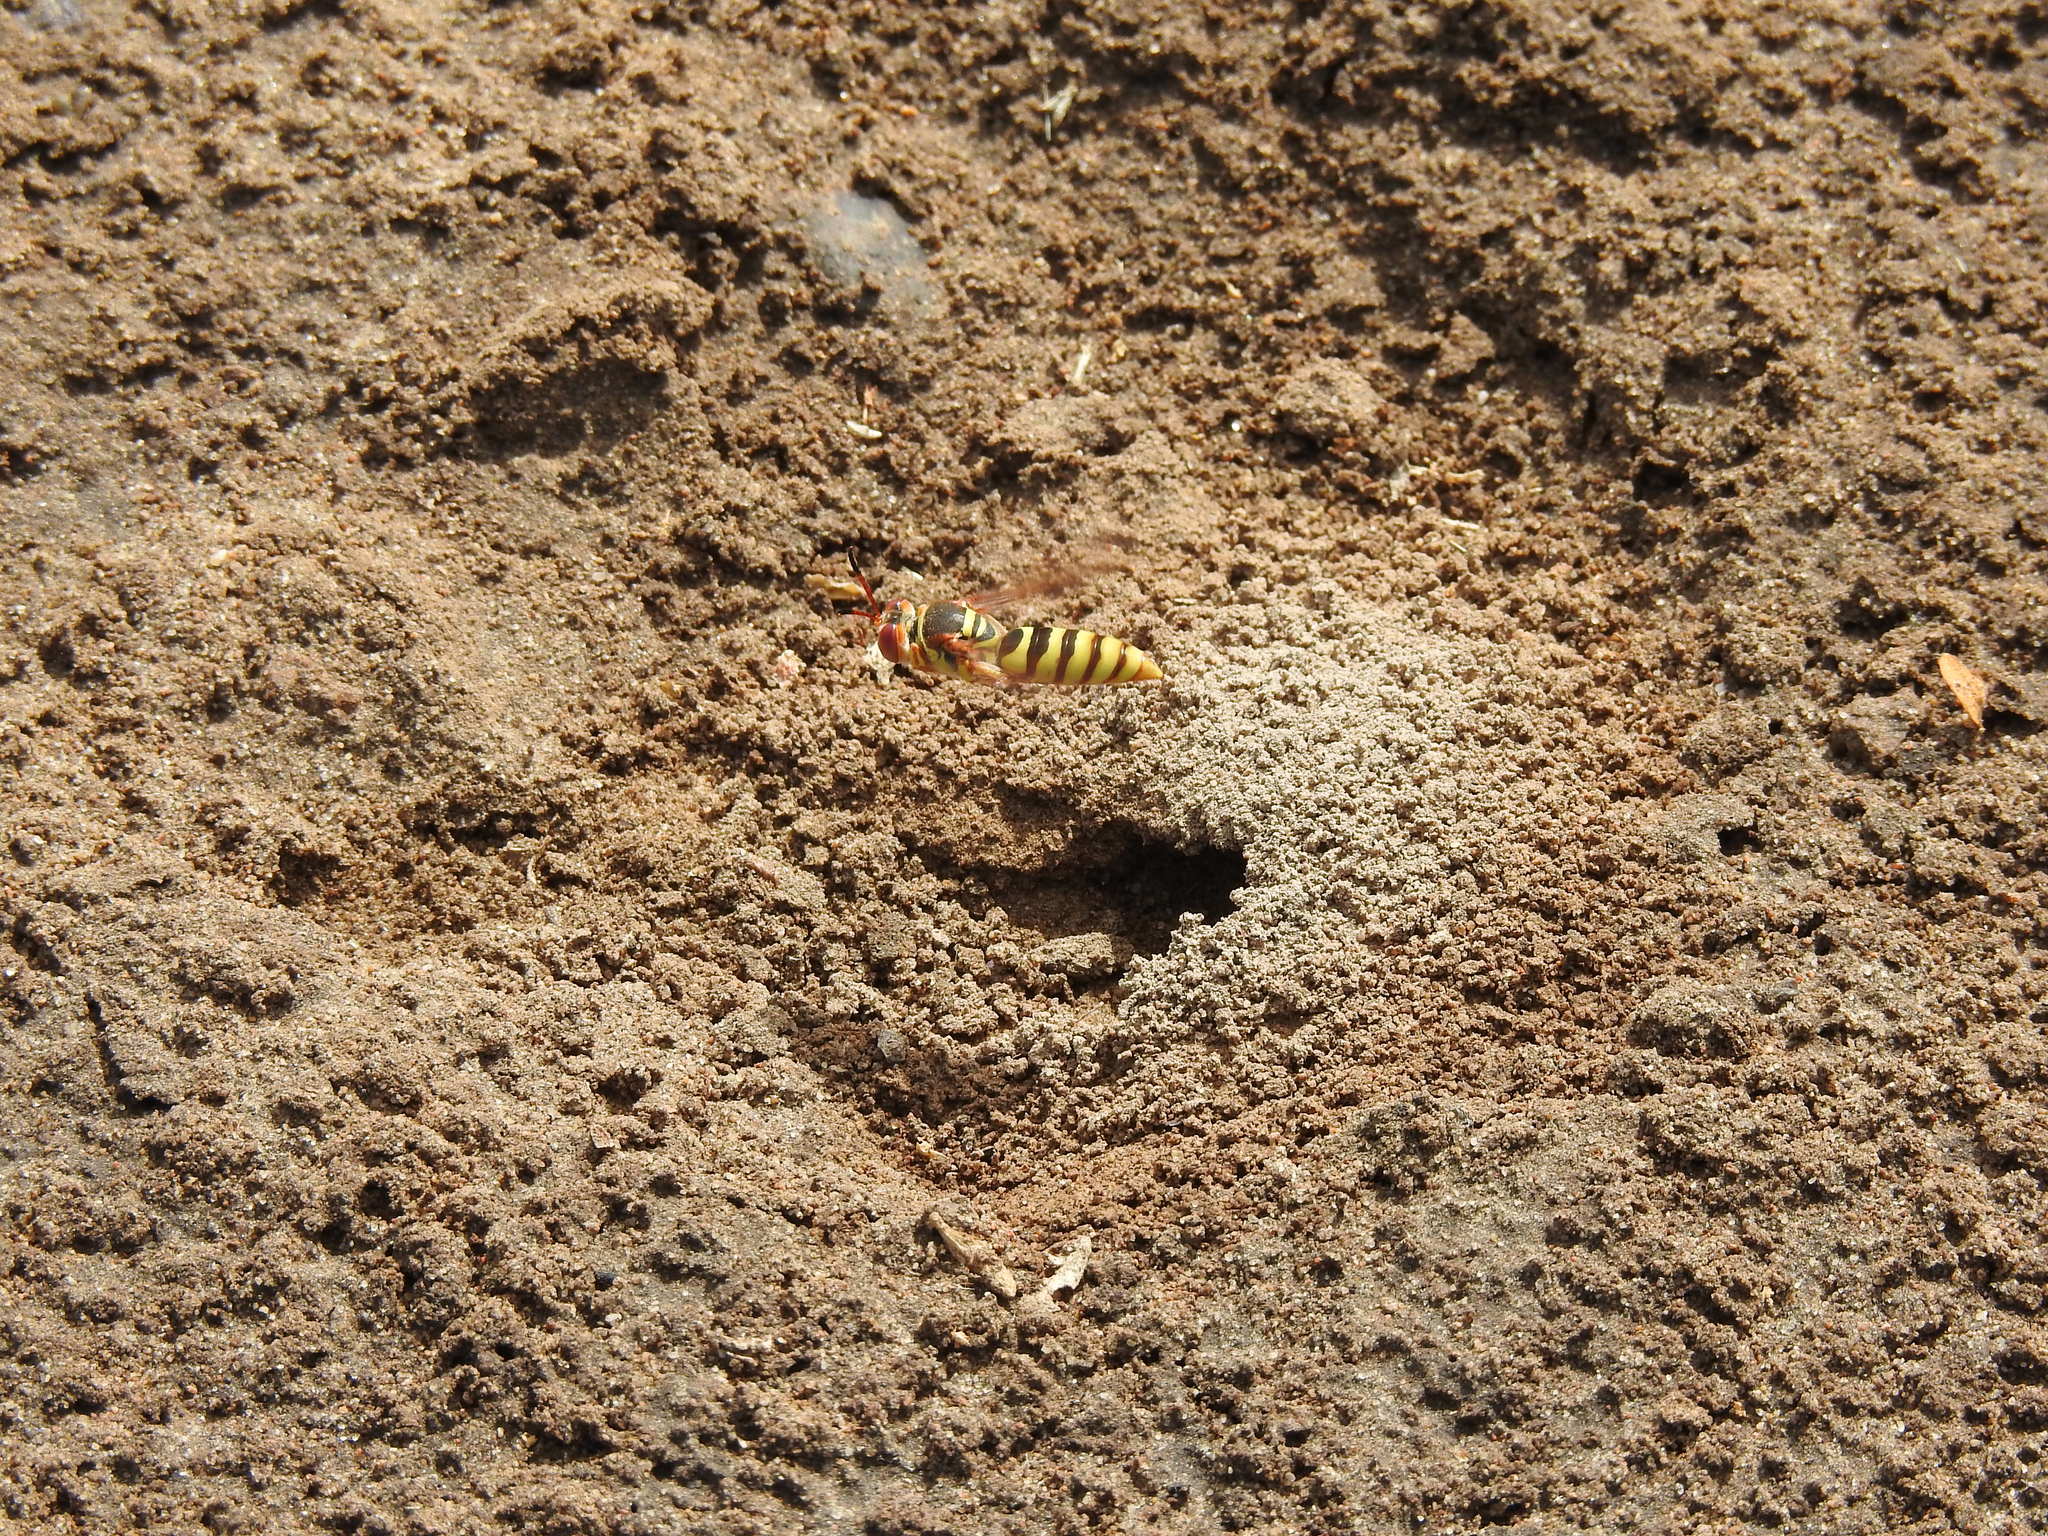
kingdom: Animalia
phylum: Arthropoda
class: Insecta
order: Hymenoptera
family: Crabronidae
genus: Rubrica
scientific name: Rubrica nasuta
